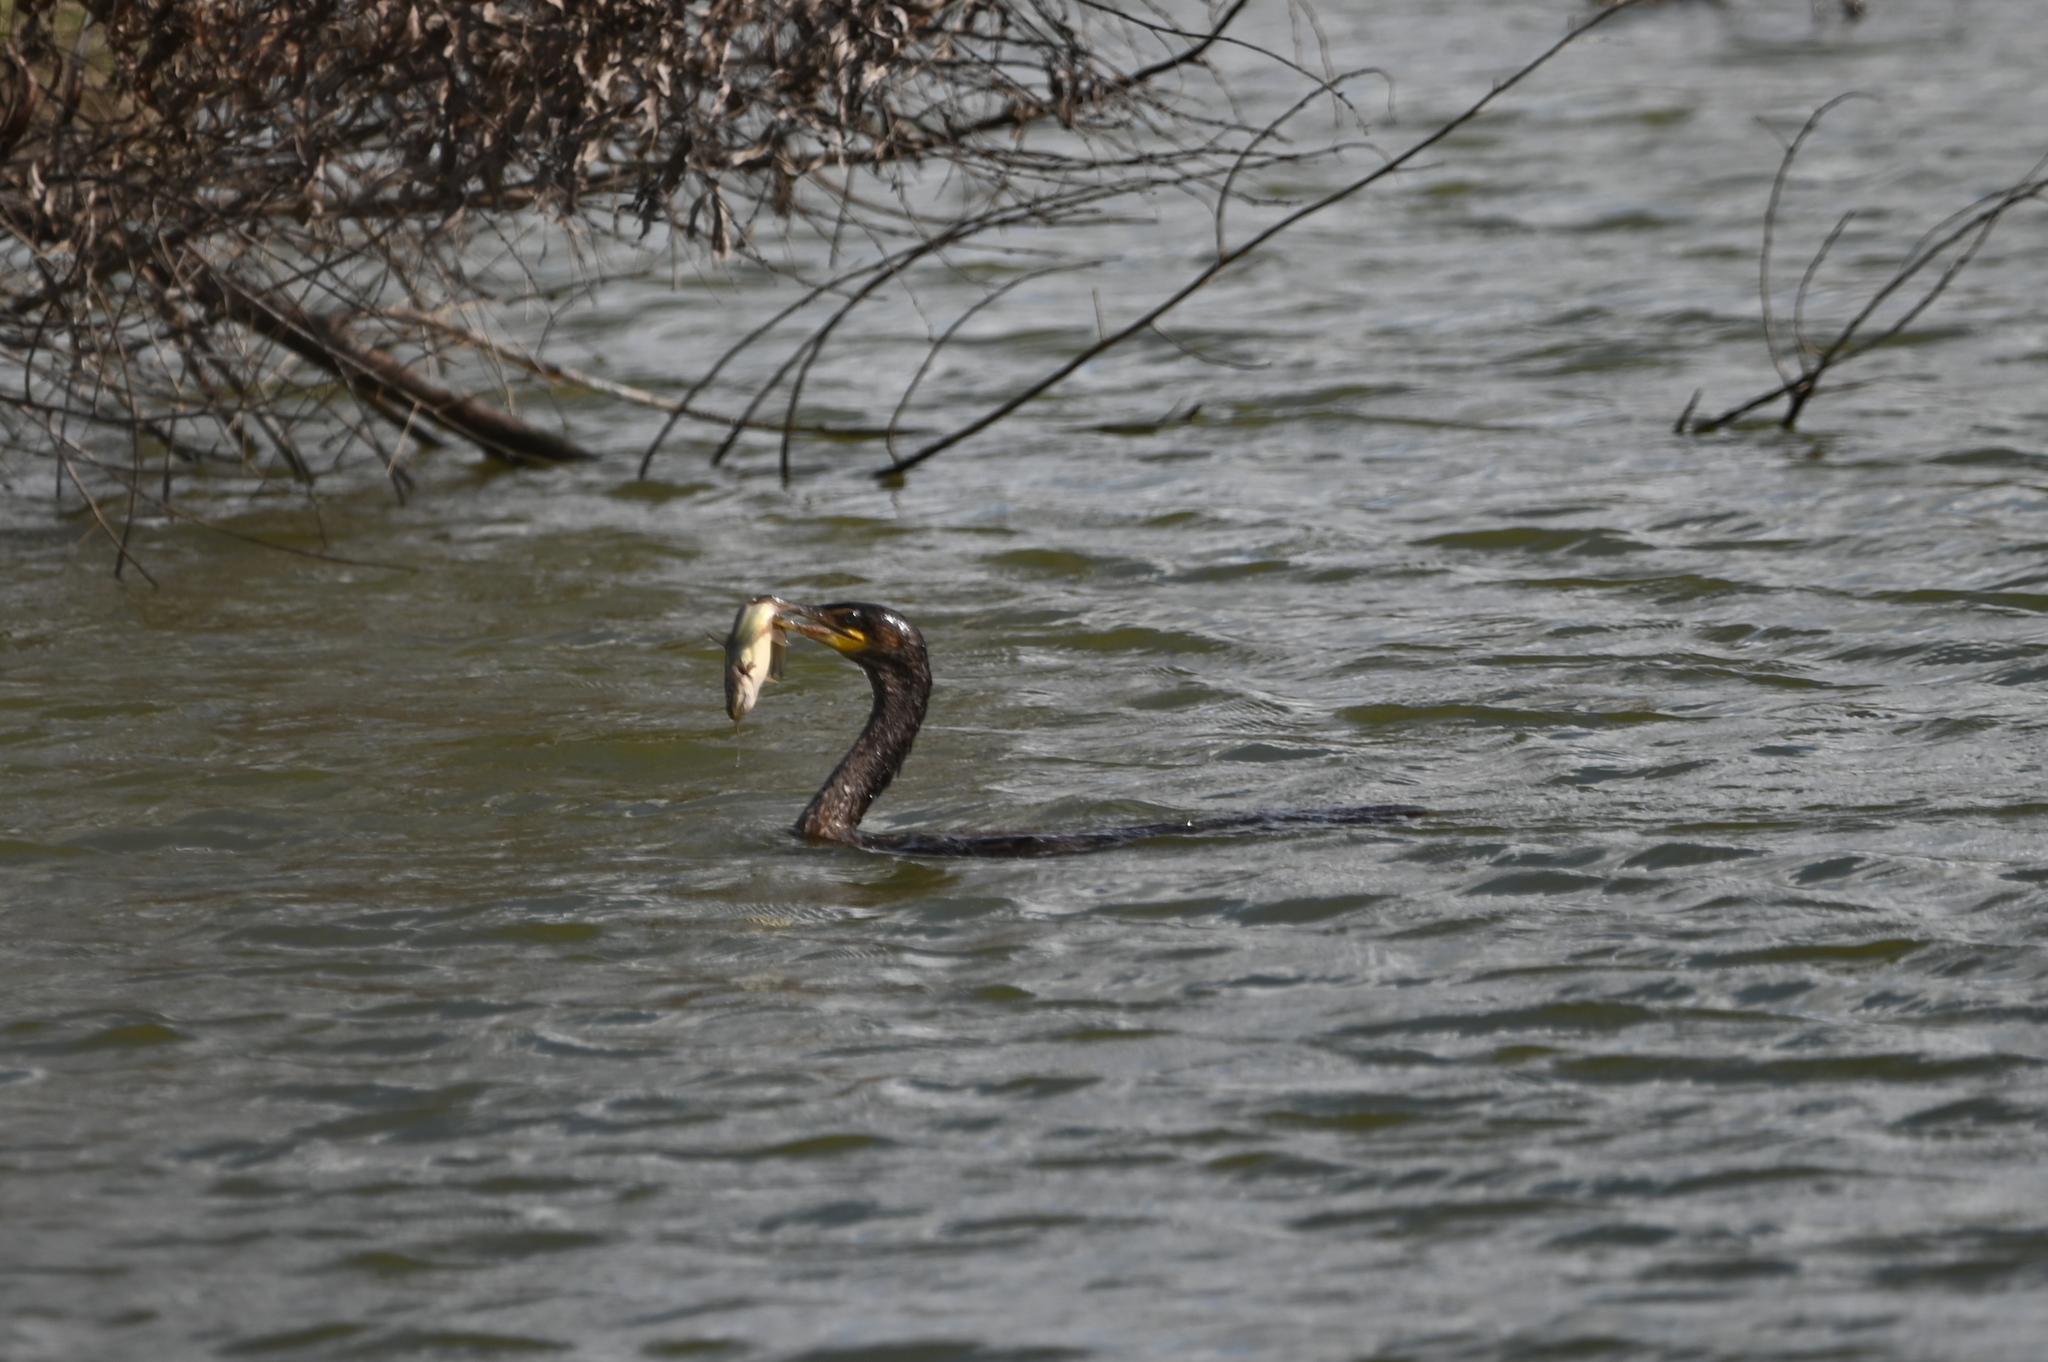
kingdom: Animalia
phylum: Chordata
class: Aves
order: Suliformes
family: Phalacrocoracidae
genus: Phalacrocorax
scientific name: Phalacrocorax auritus
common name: Double-crested cormorant
